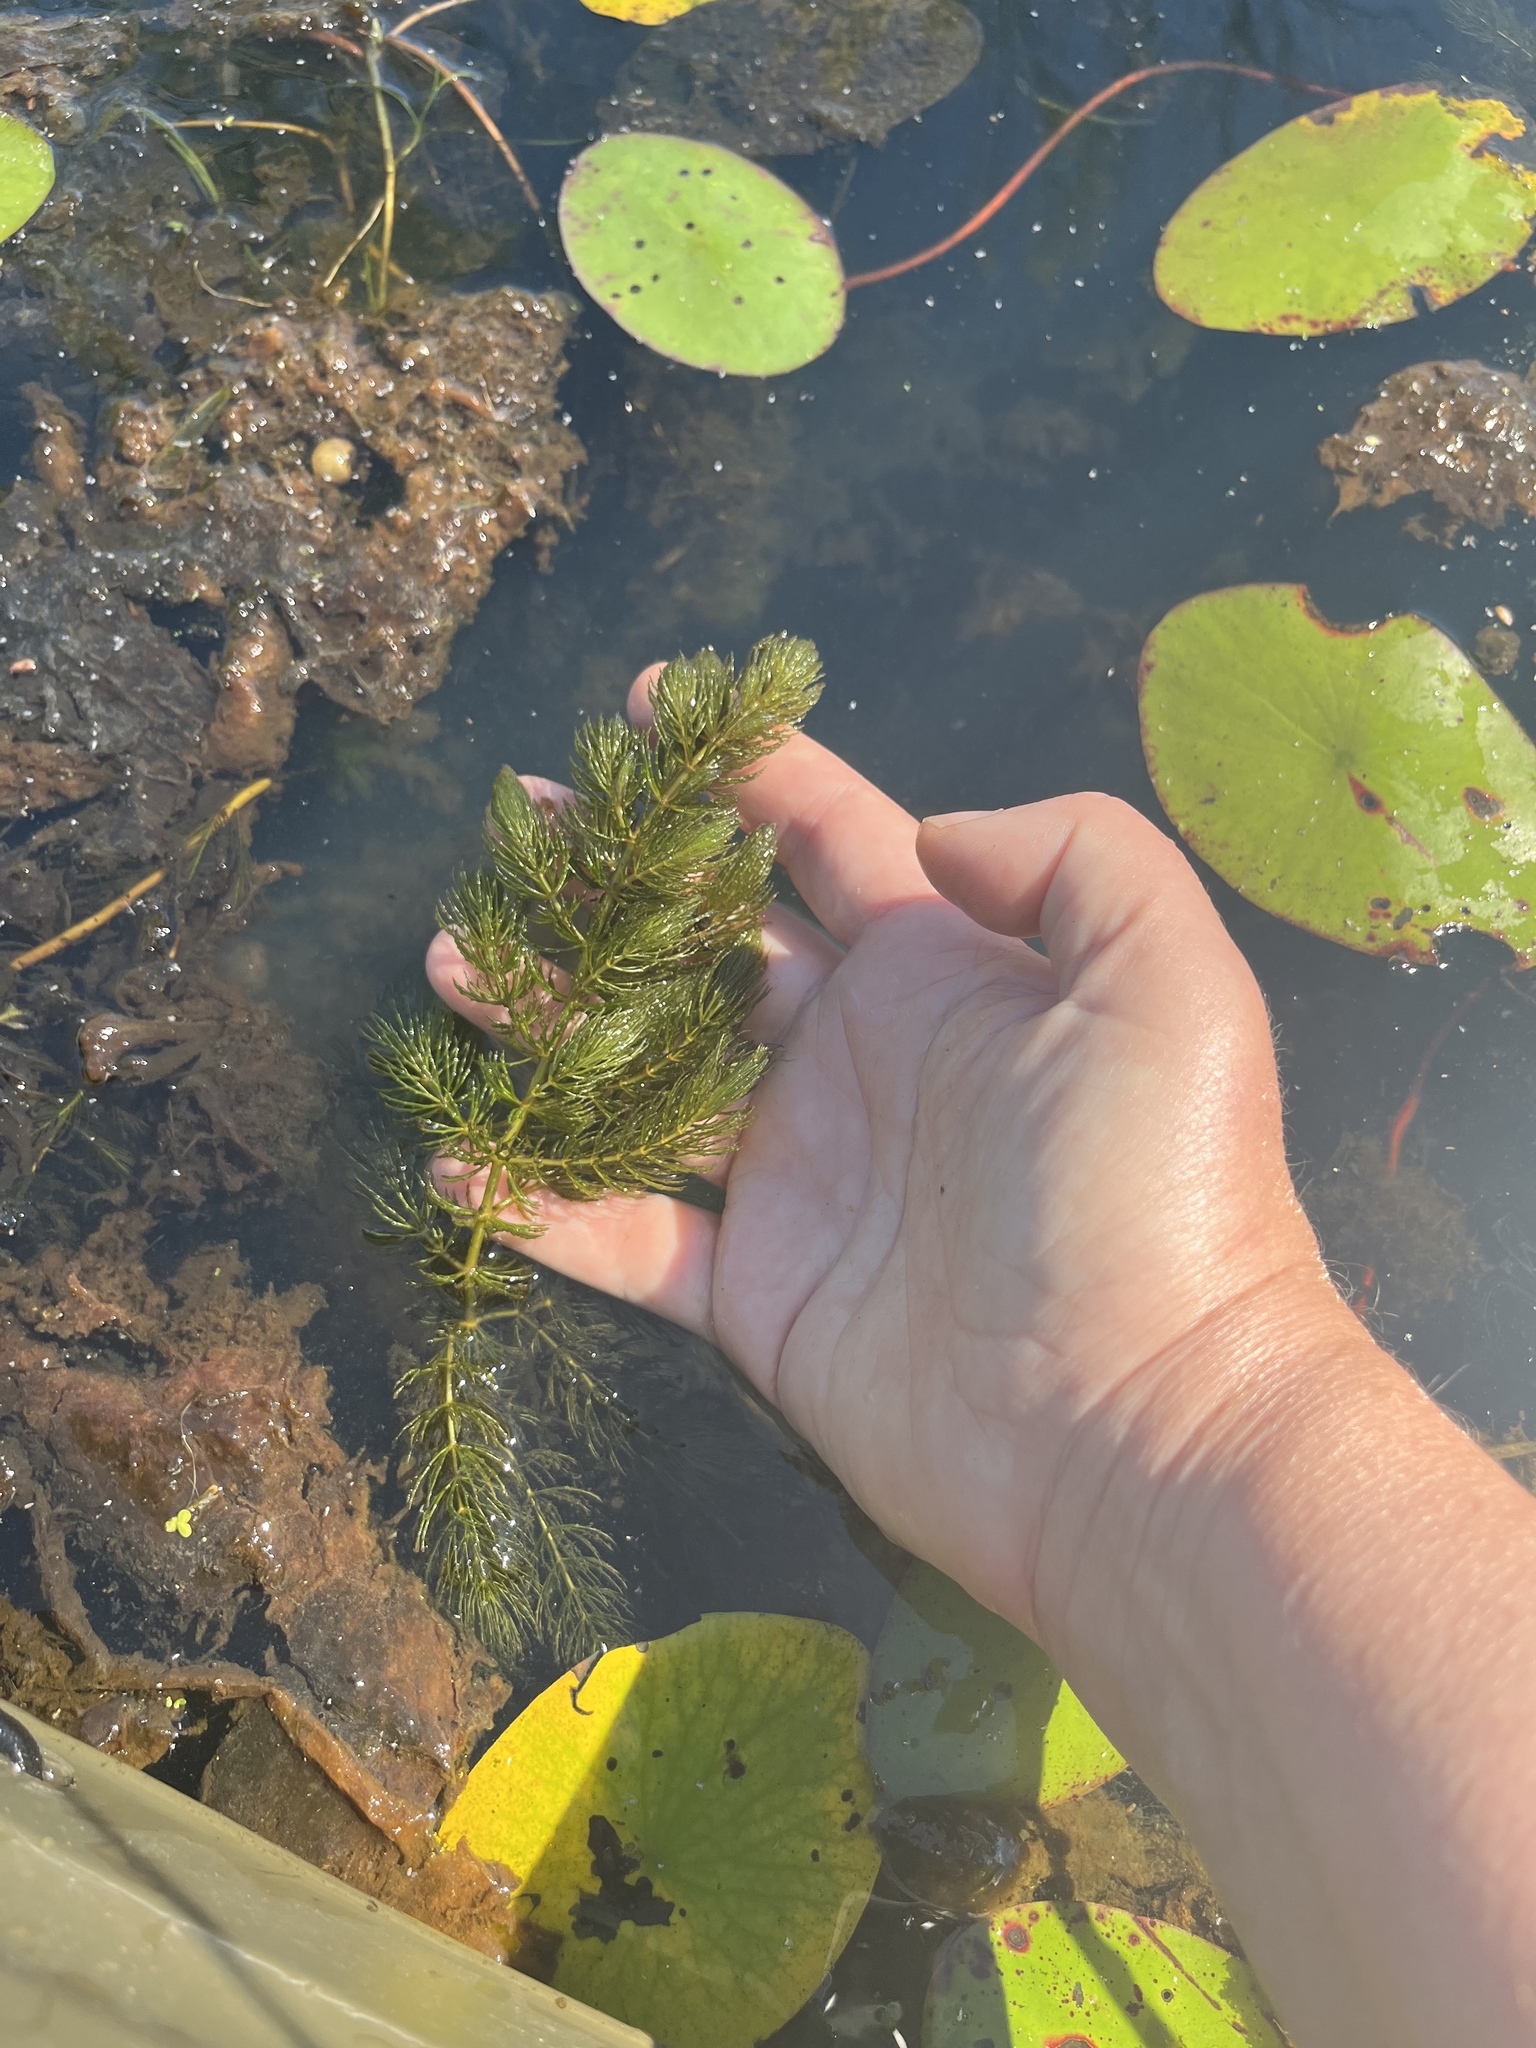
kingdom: Plantae
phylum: Tracheophyta
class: Magnoliopsida
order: Ceratophyllales
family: Ceratophyllaceae
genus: Ceratophyllum
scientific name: Ceratophyllum demersum
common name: Rigid hornwort
